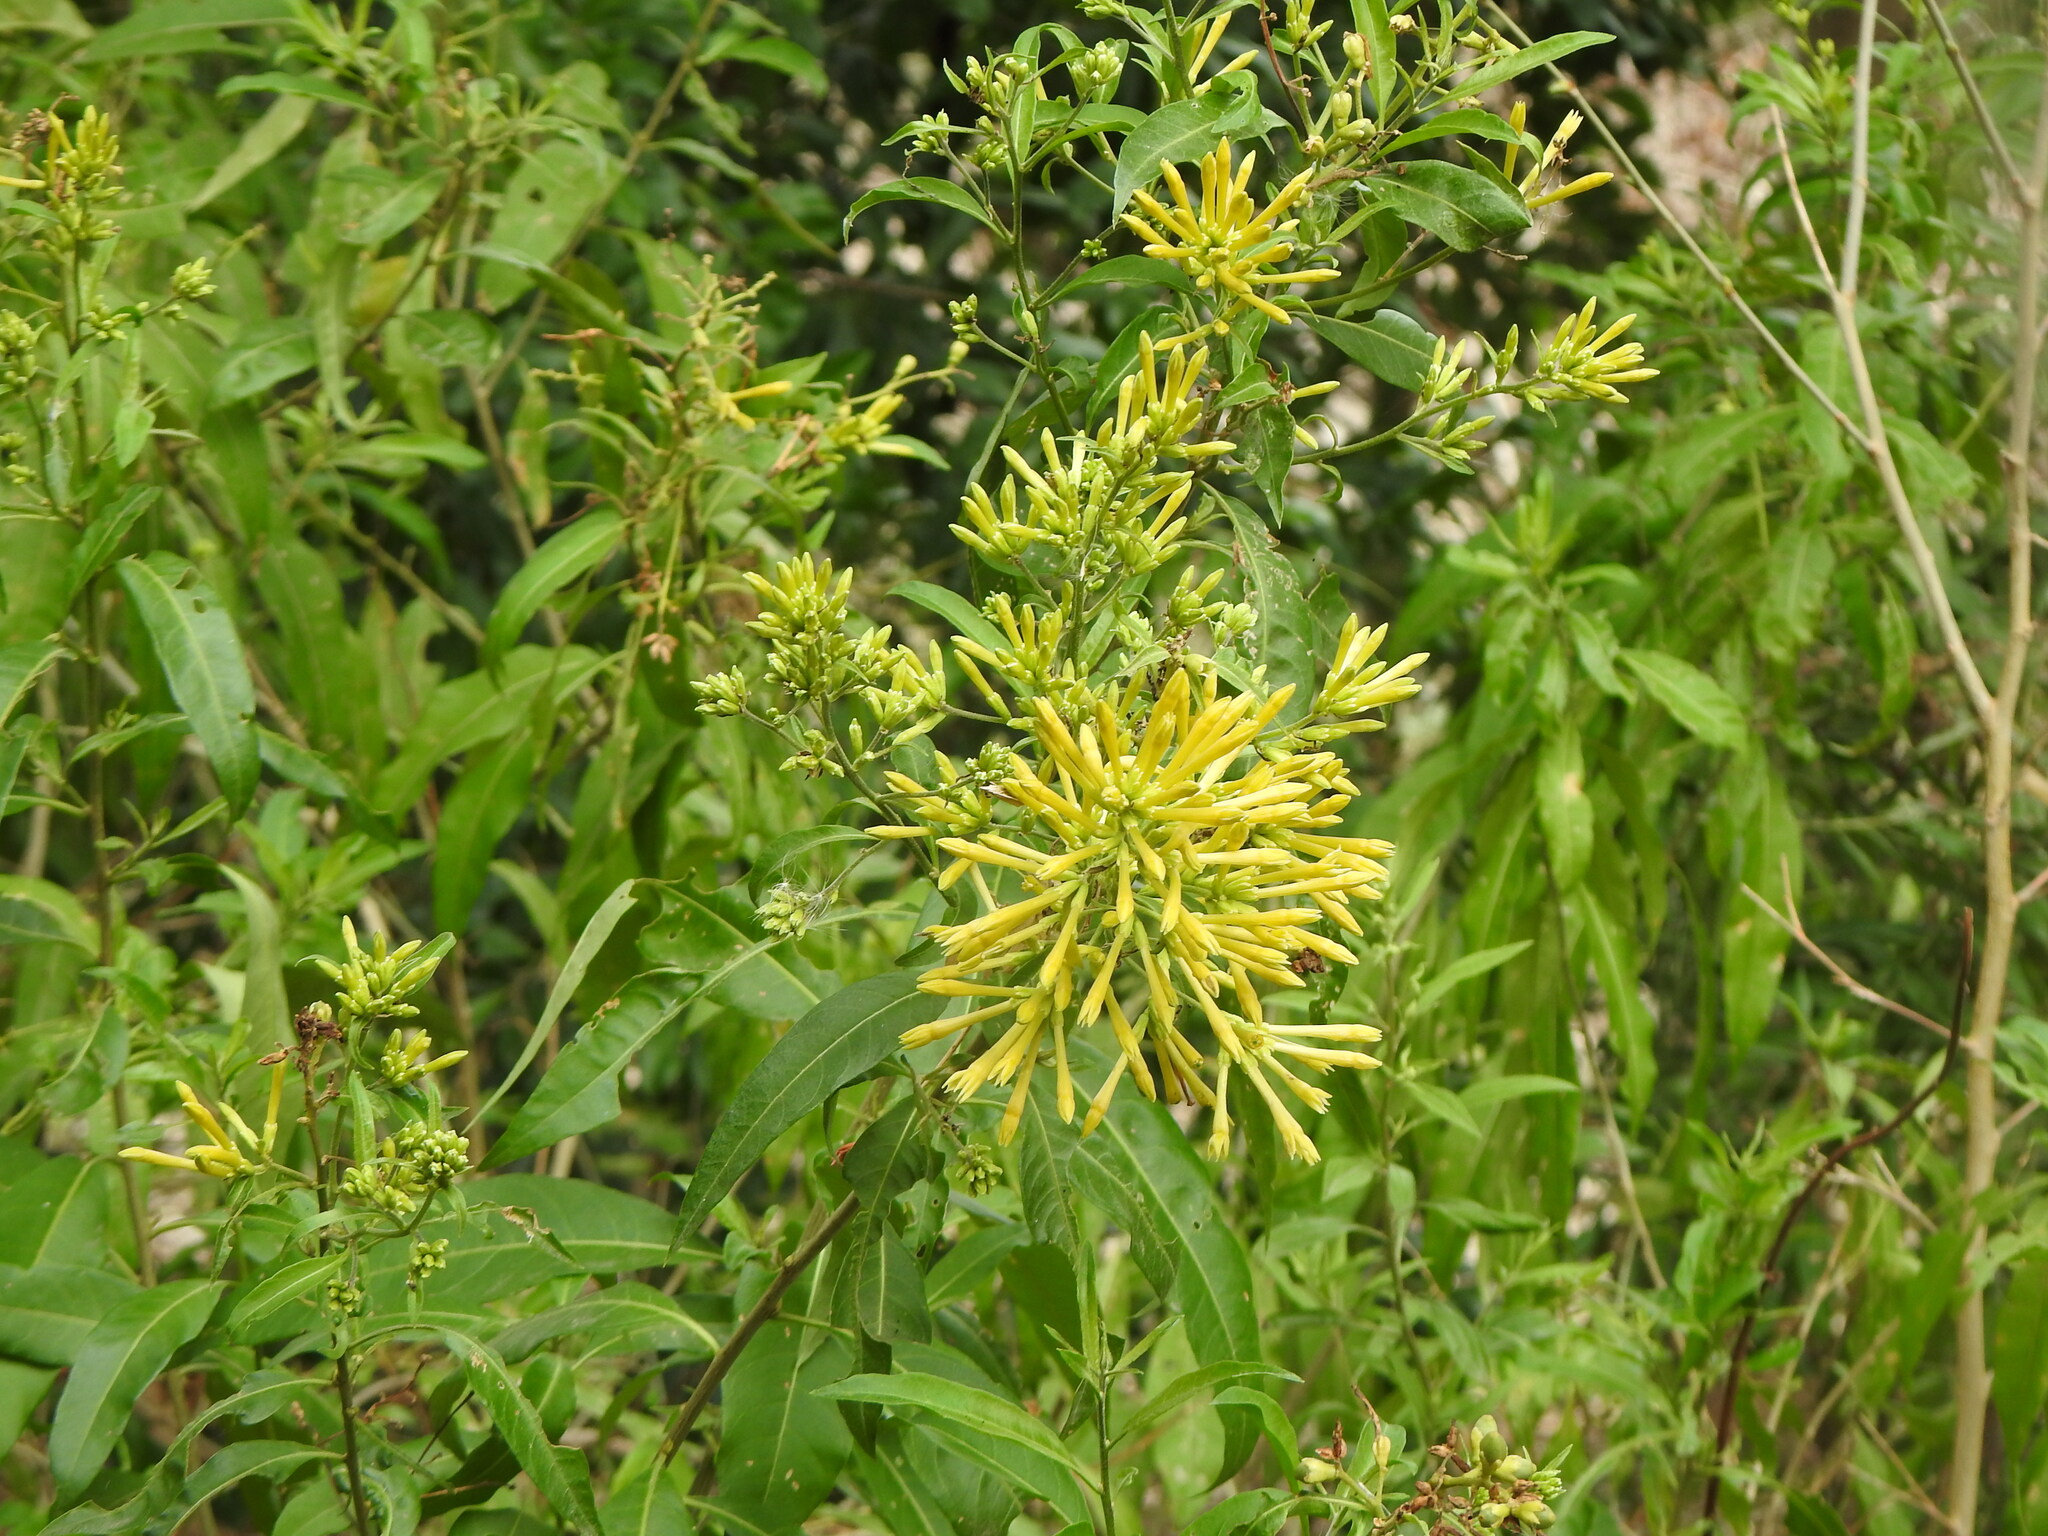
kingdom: Plantae
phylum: Tracheophyta
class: Magnoliopsida
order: Solanales
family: Solanaceae
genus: Cestrum
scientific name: Cestrum parqui
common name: Chilean cestrum
